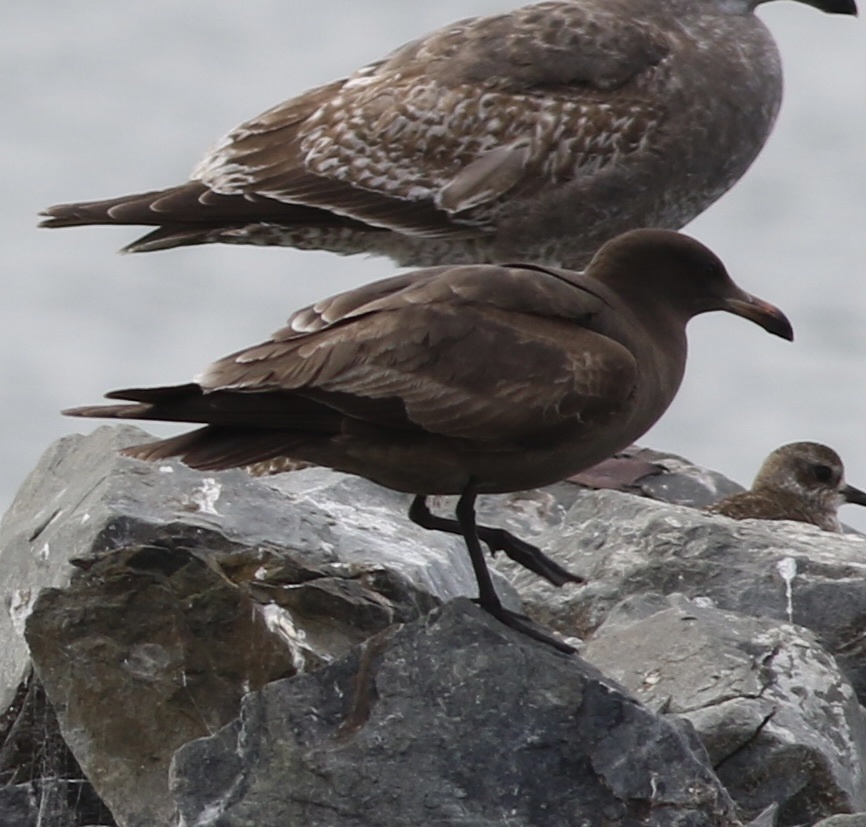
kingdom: Animalia
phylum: Chordata
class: Aves
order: Charadriiformes
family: Laridae
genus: Larus
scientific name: Larus heermanni
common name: Heermann's gull
